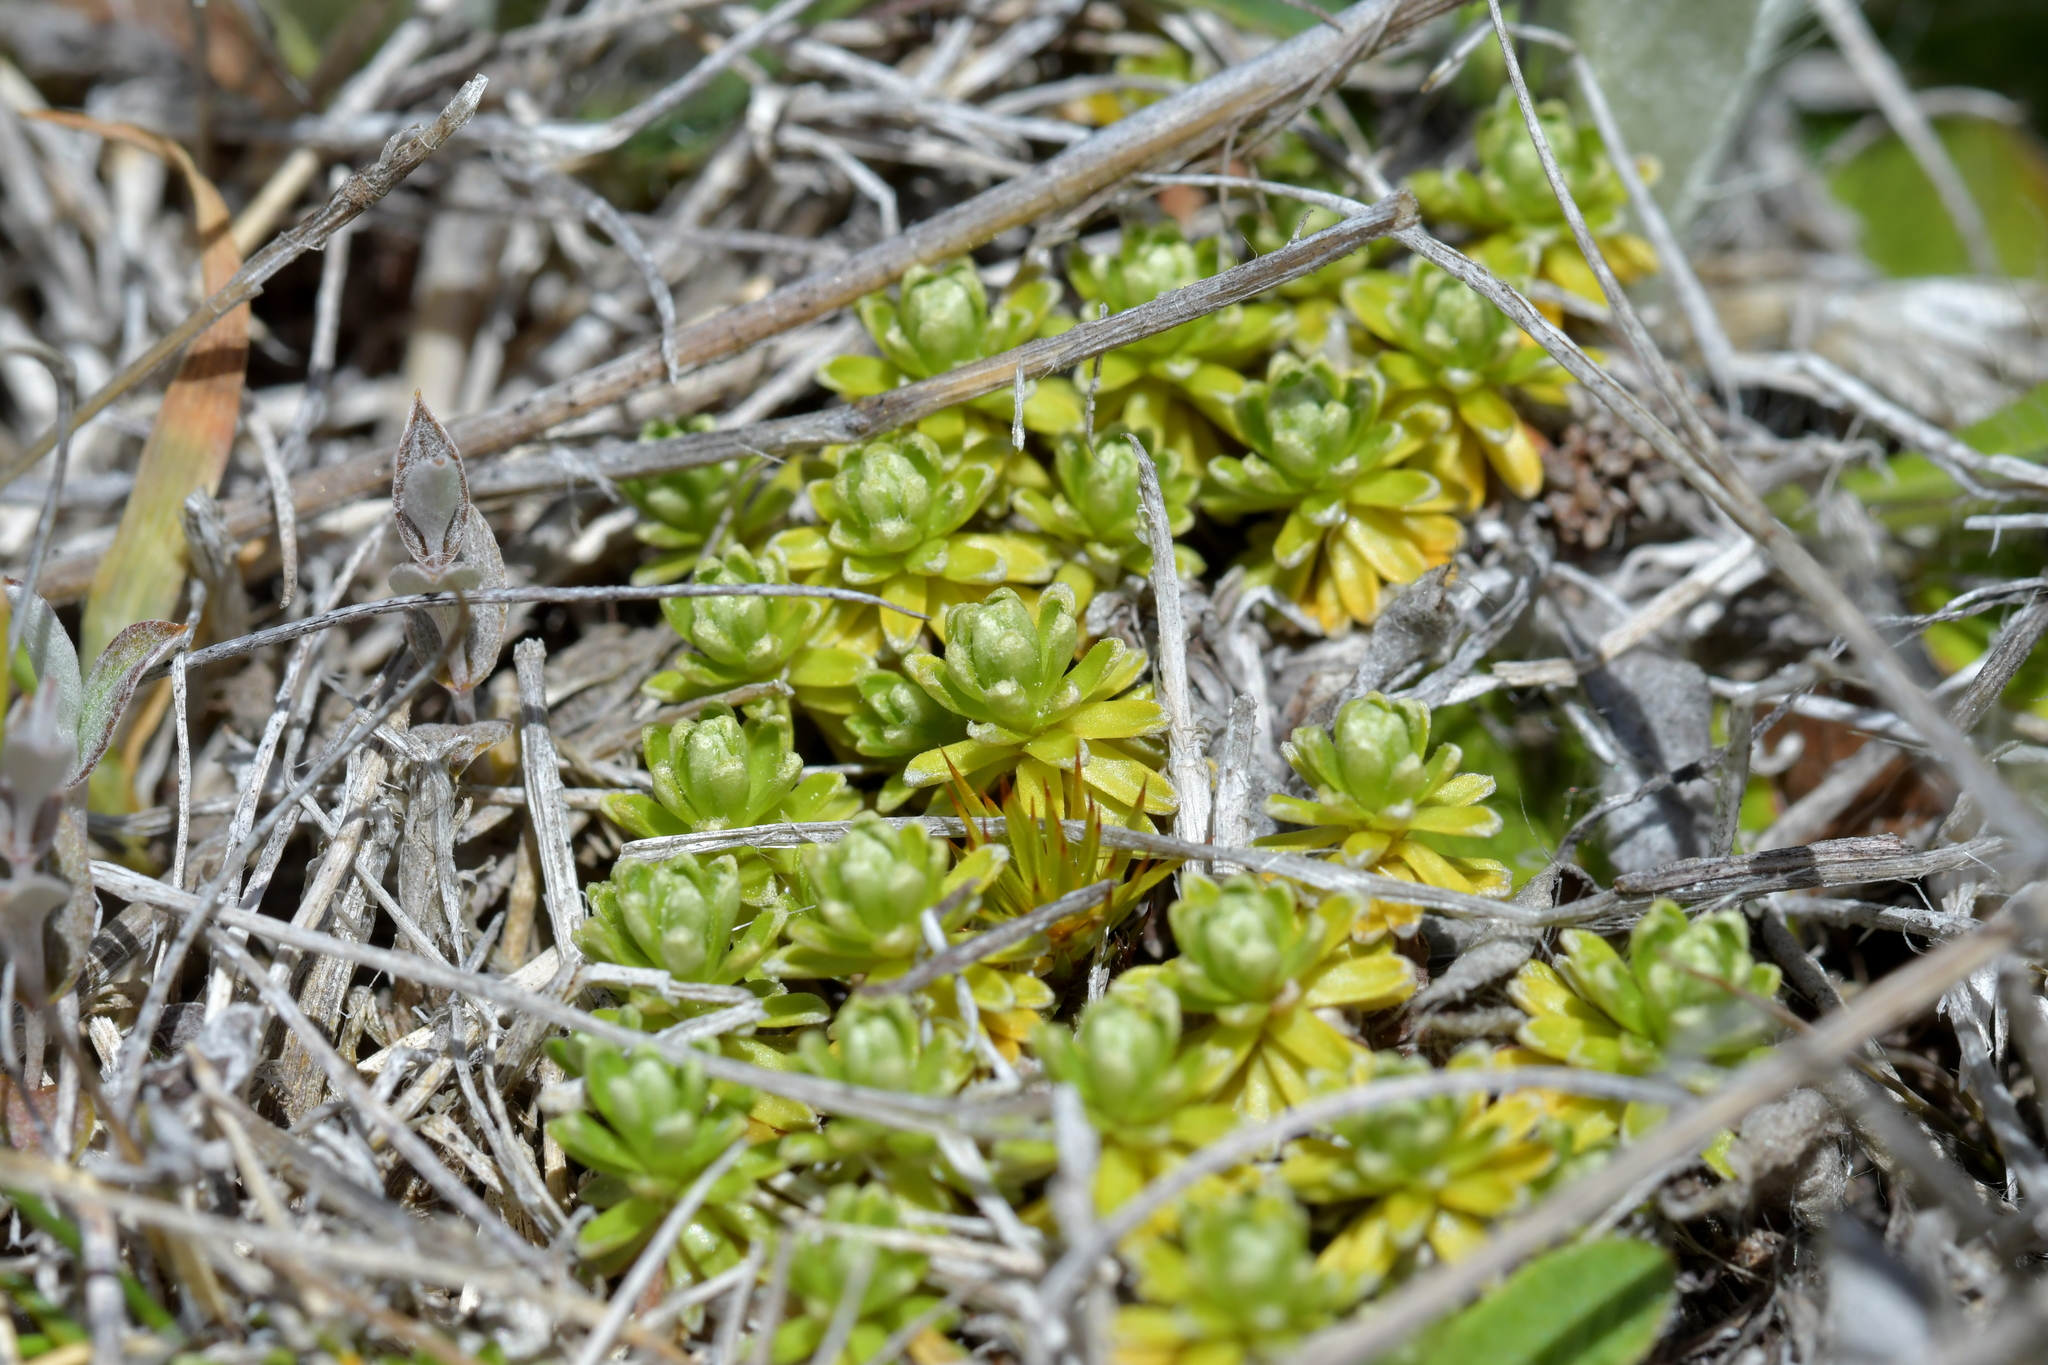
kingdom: Plantae
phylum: Tracheophyta
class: Magnoliopsida
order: Asterales
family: Asteraceae
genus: Raoulia
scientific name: Raoulia subsericea
